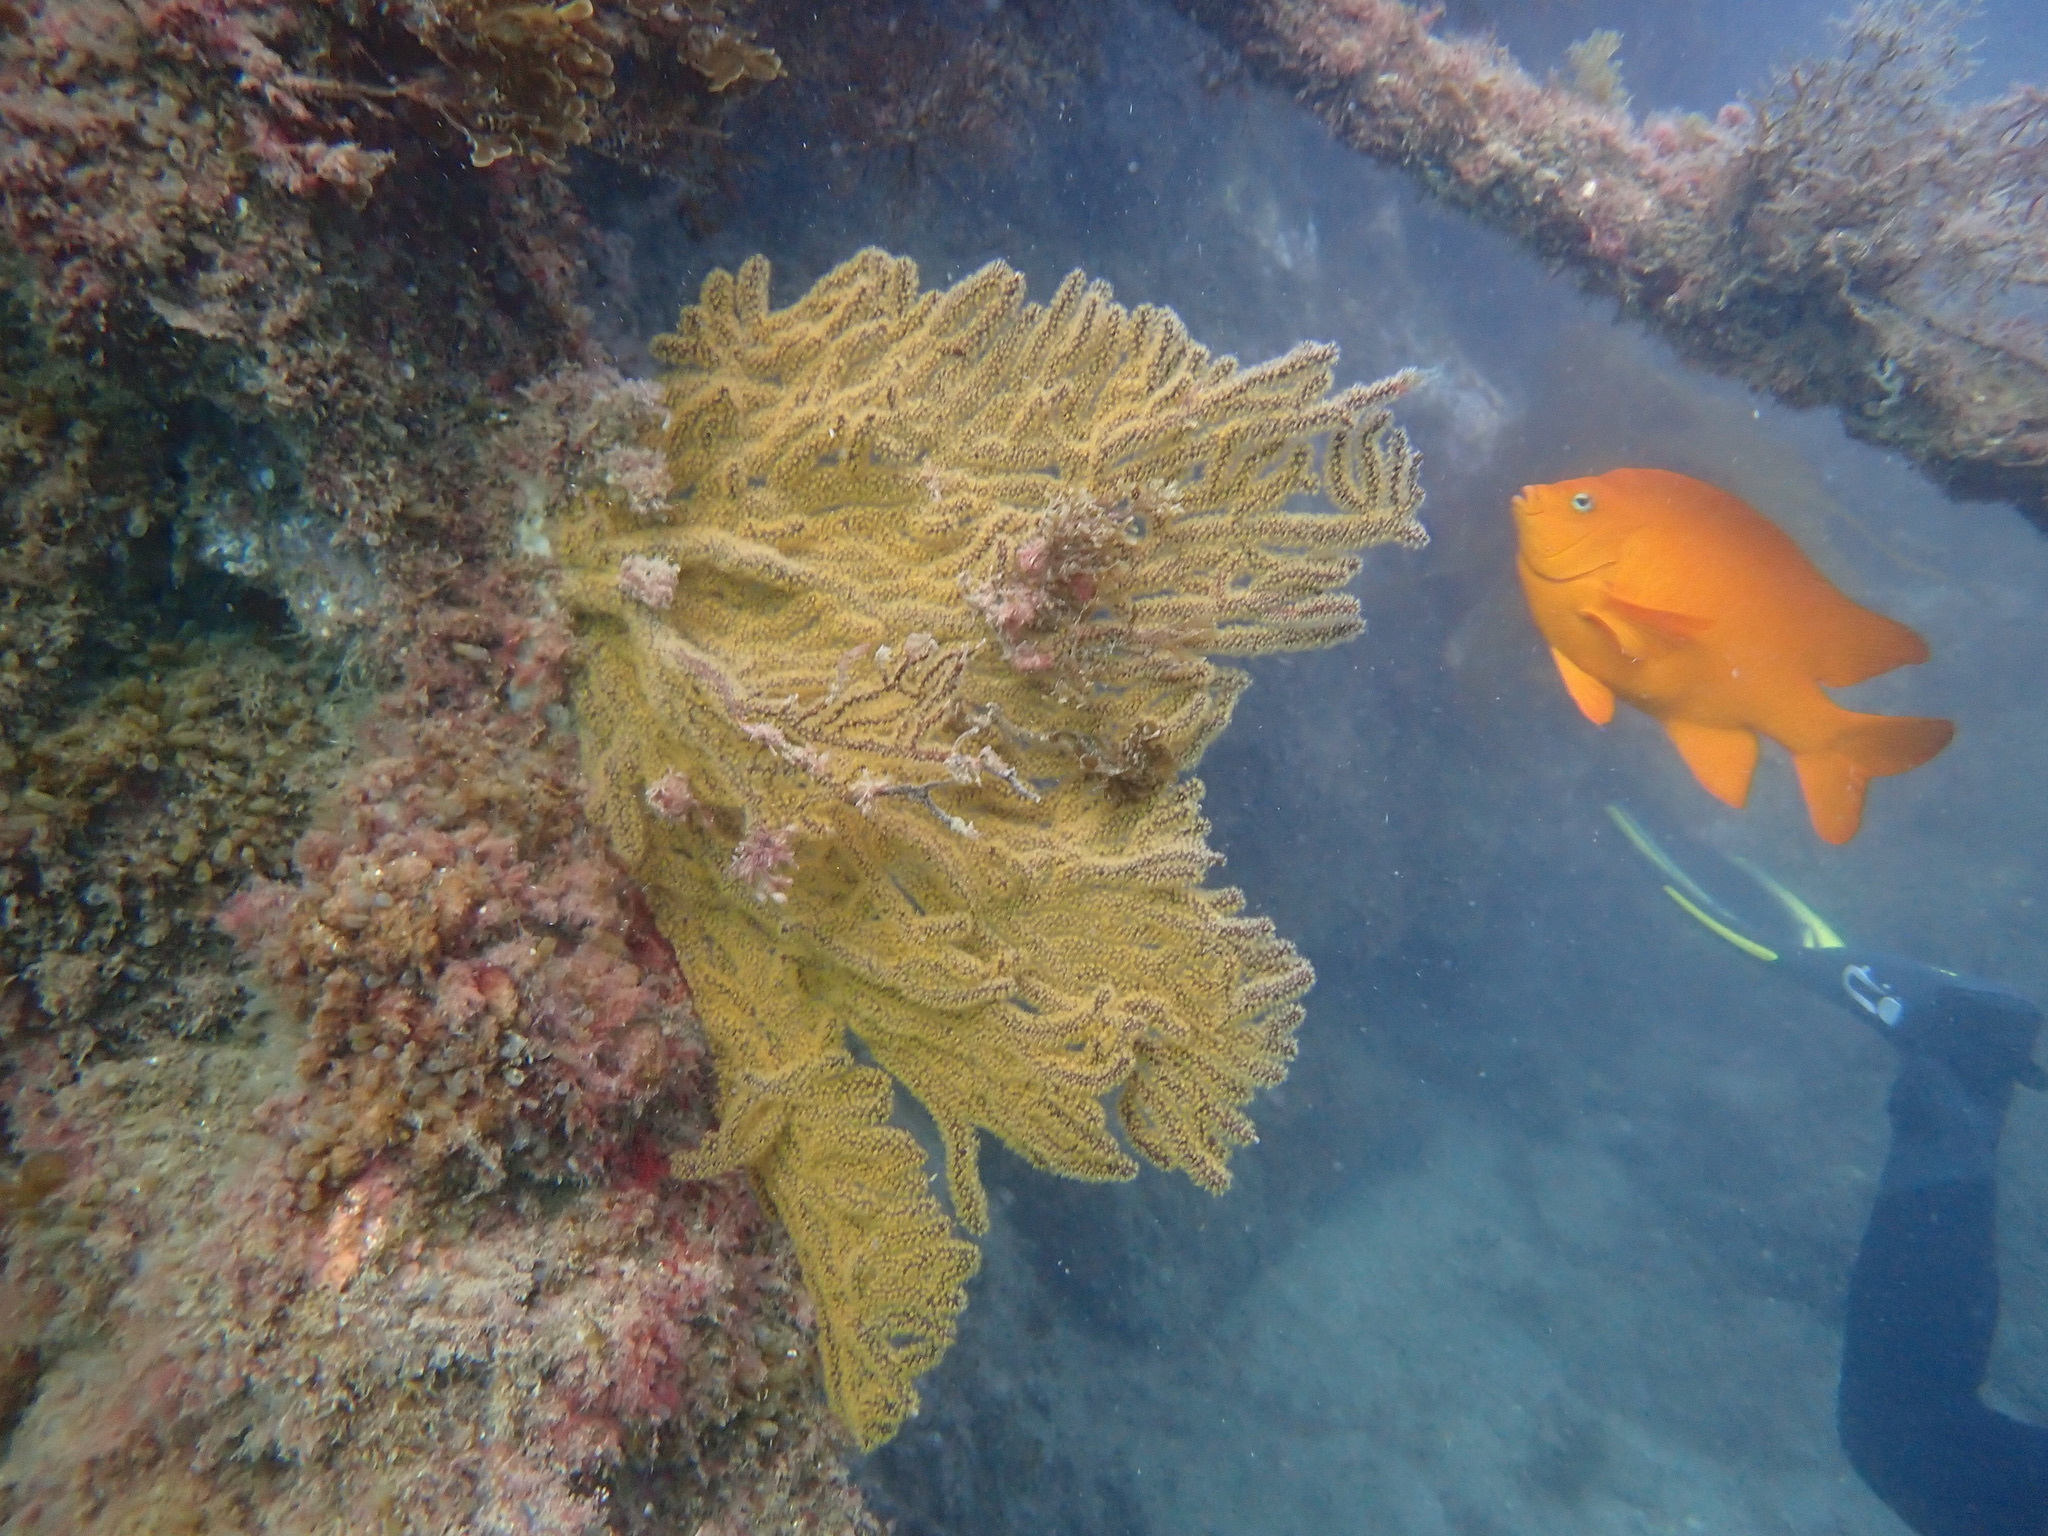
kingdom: Animalia
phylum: Cnidaria
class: Anthozoa
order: Malacalcyonacea
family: Plexauridae
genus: Muricea
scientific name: Muricea californica
